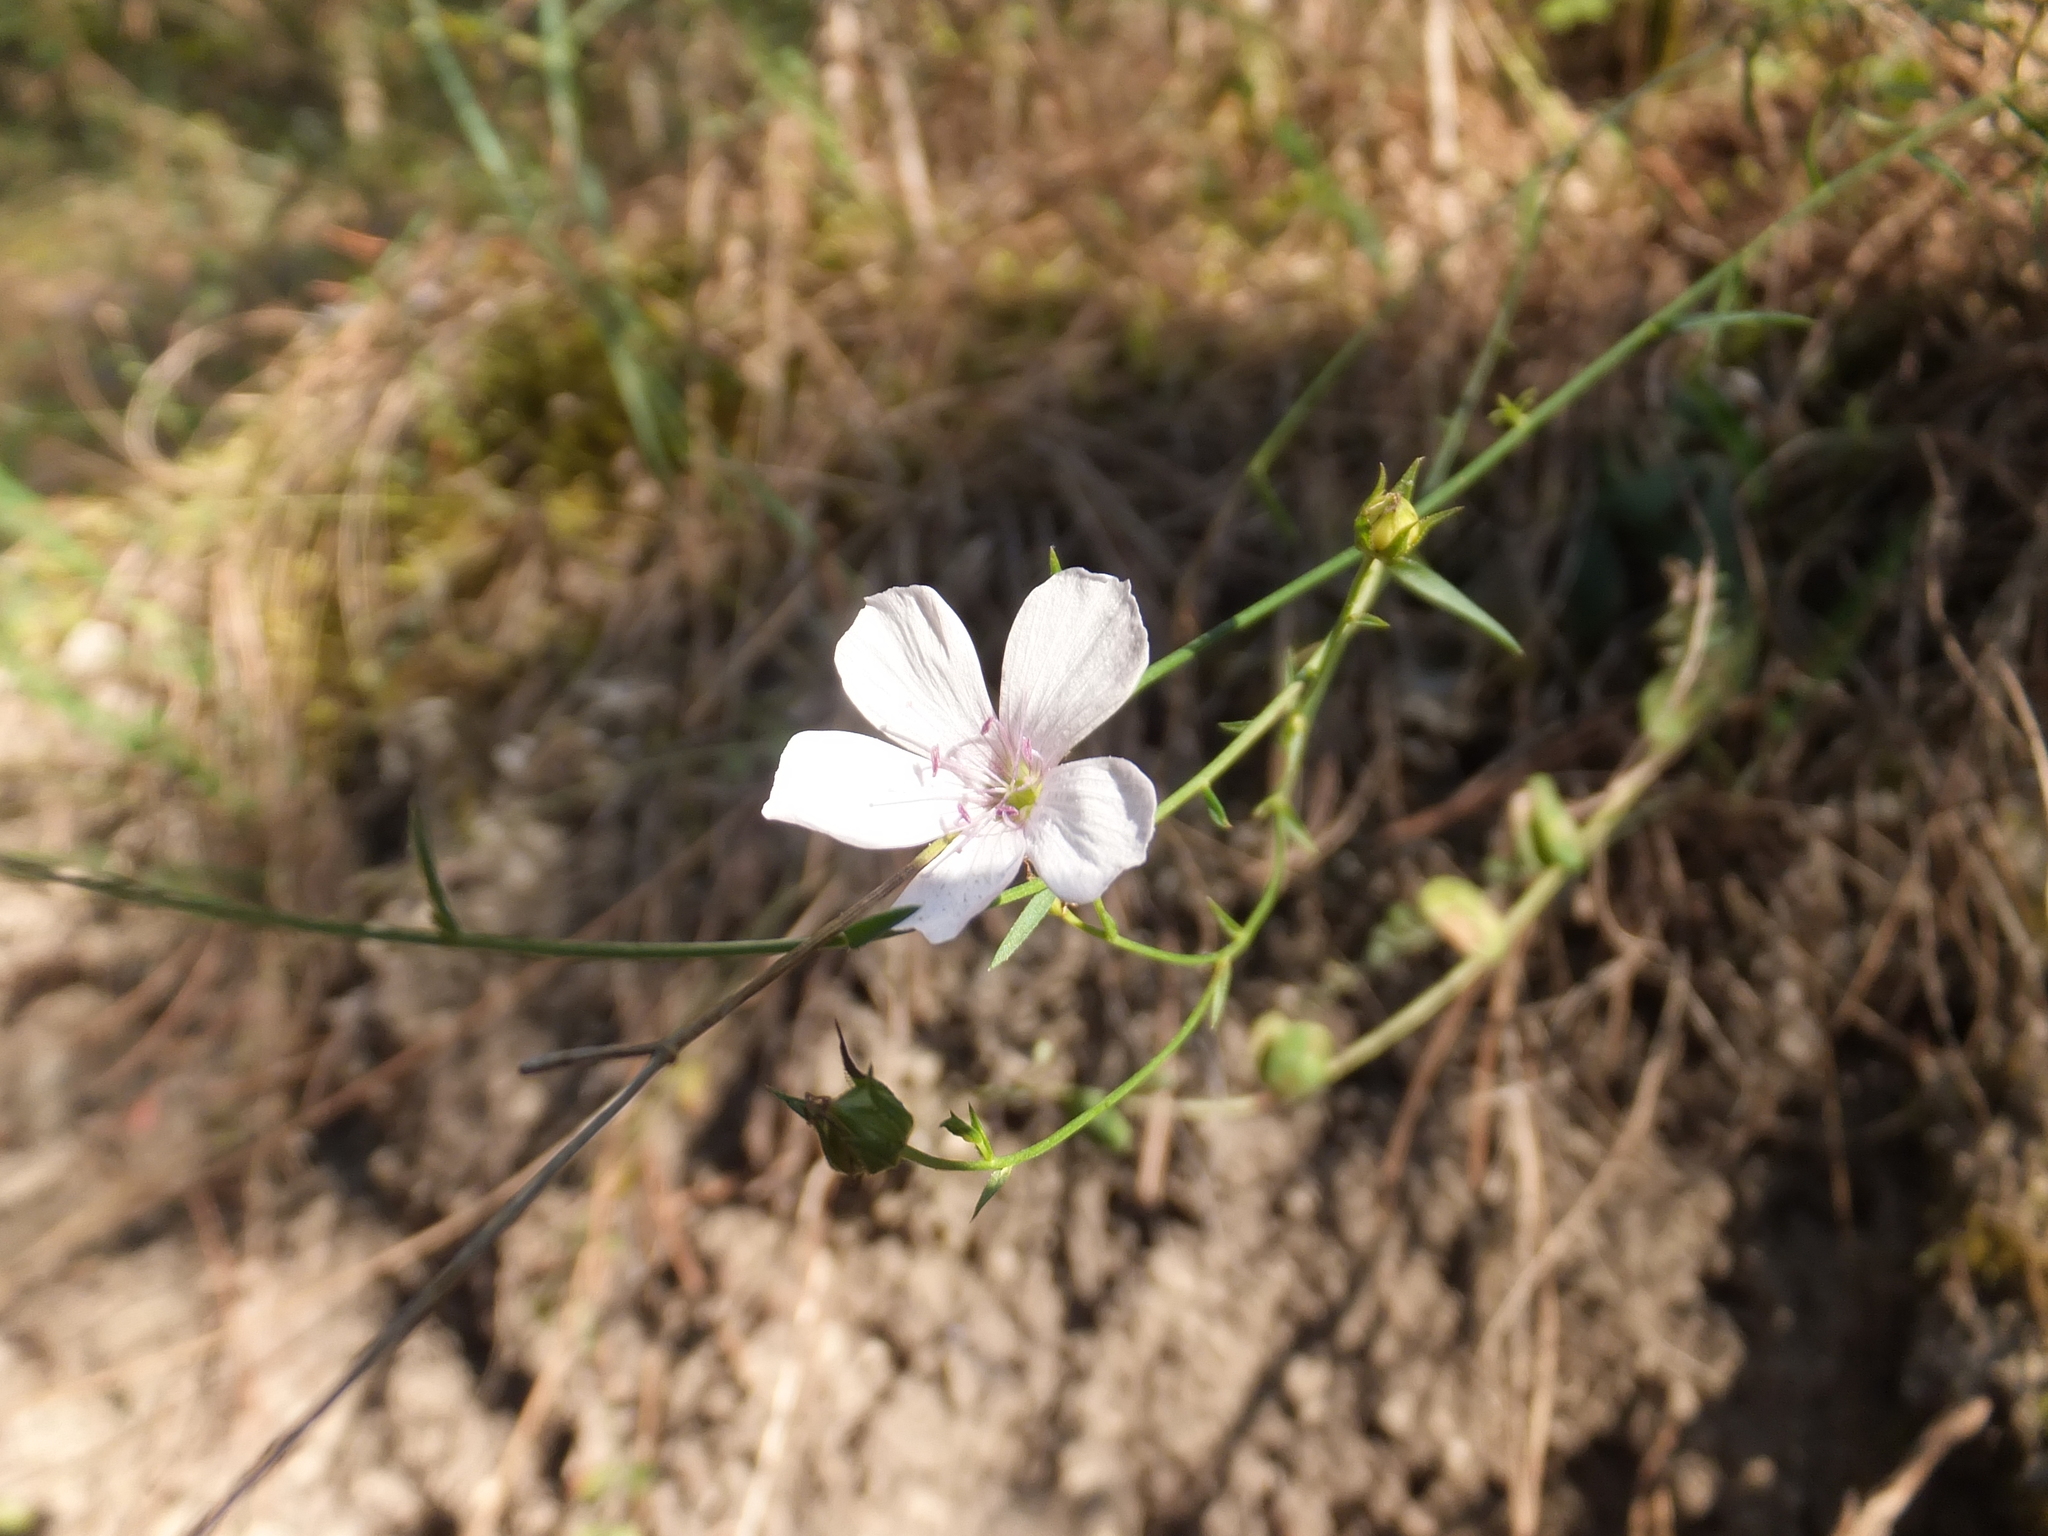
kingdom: Plantae
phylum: Tracheophyta
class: Magnoliopsida
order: Malpighiales
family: Linaceae
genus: Linum
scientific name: Linum tenuifolium
